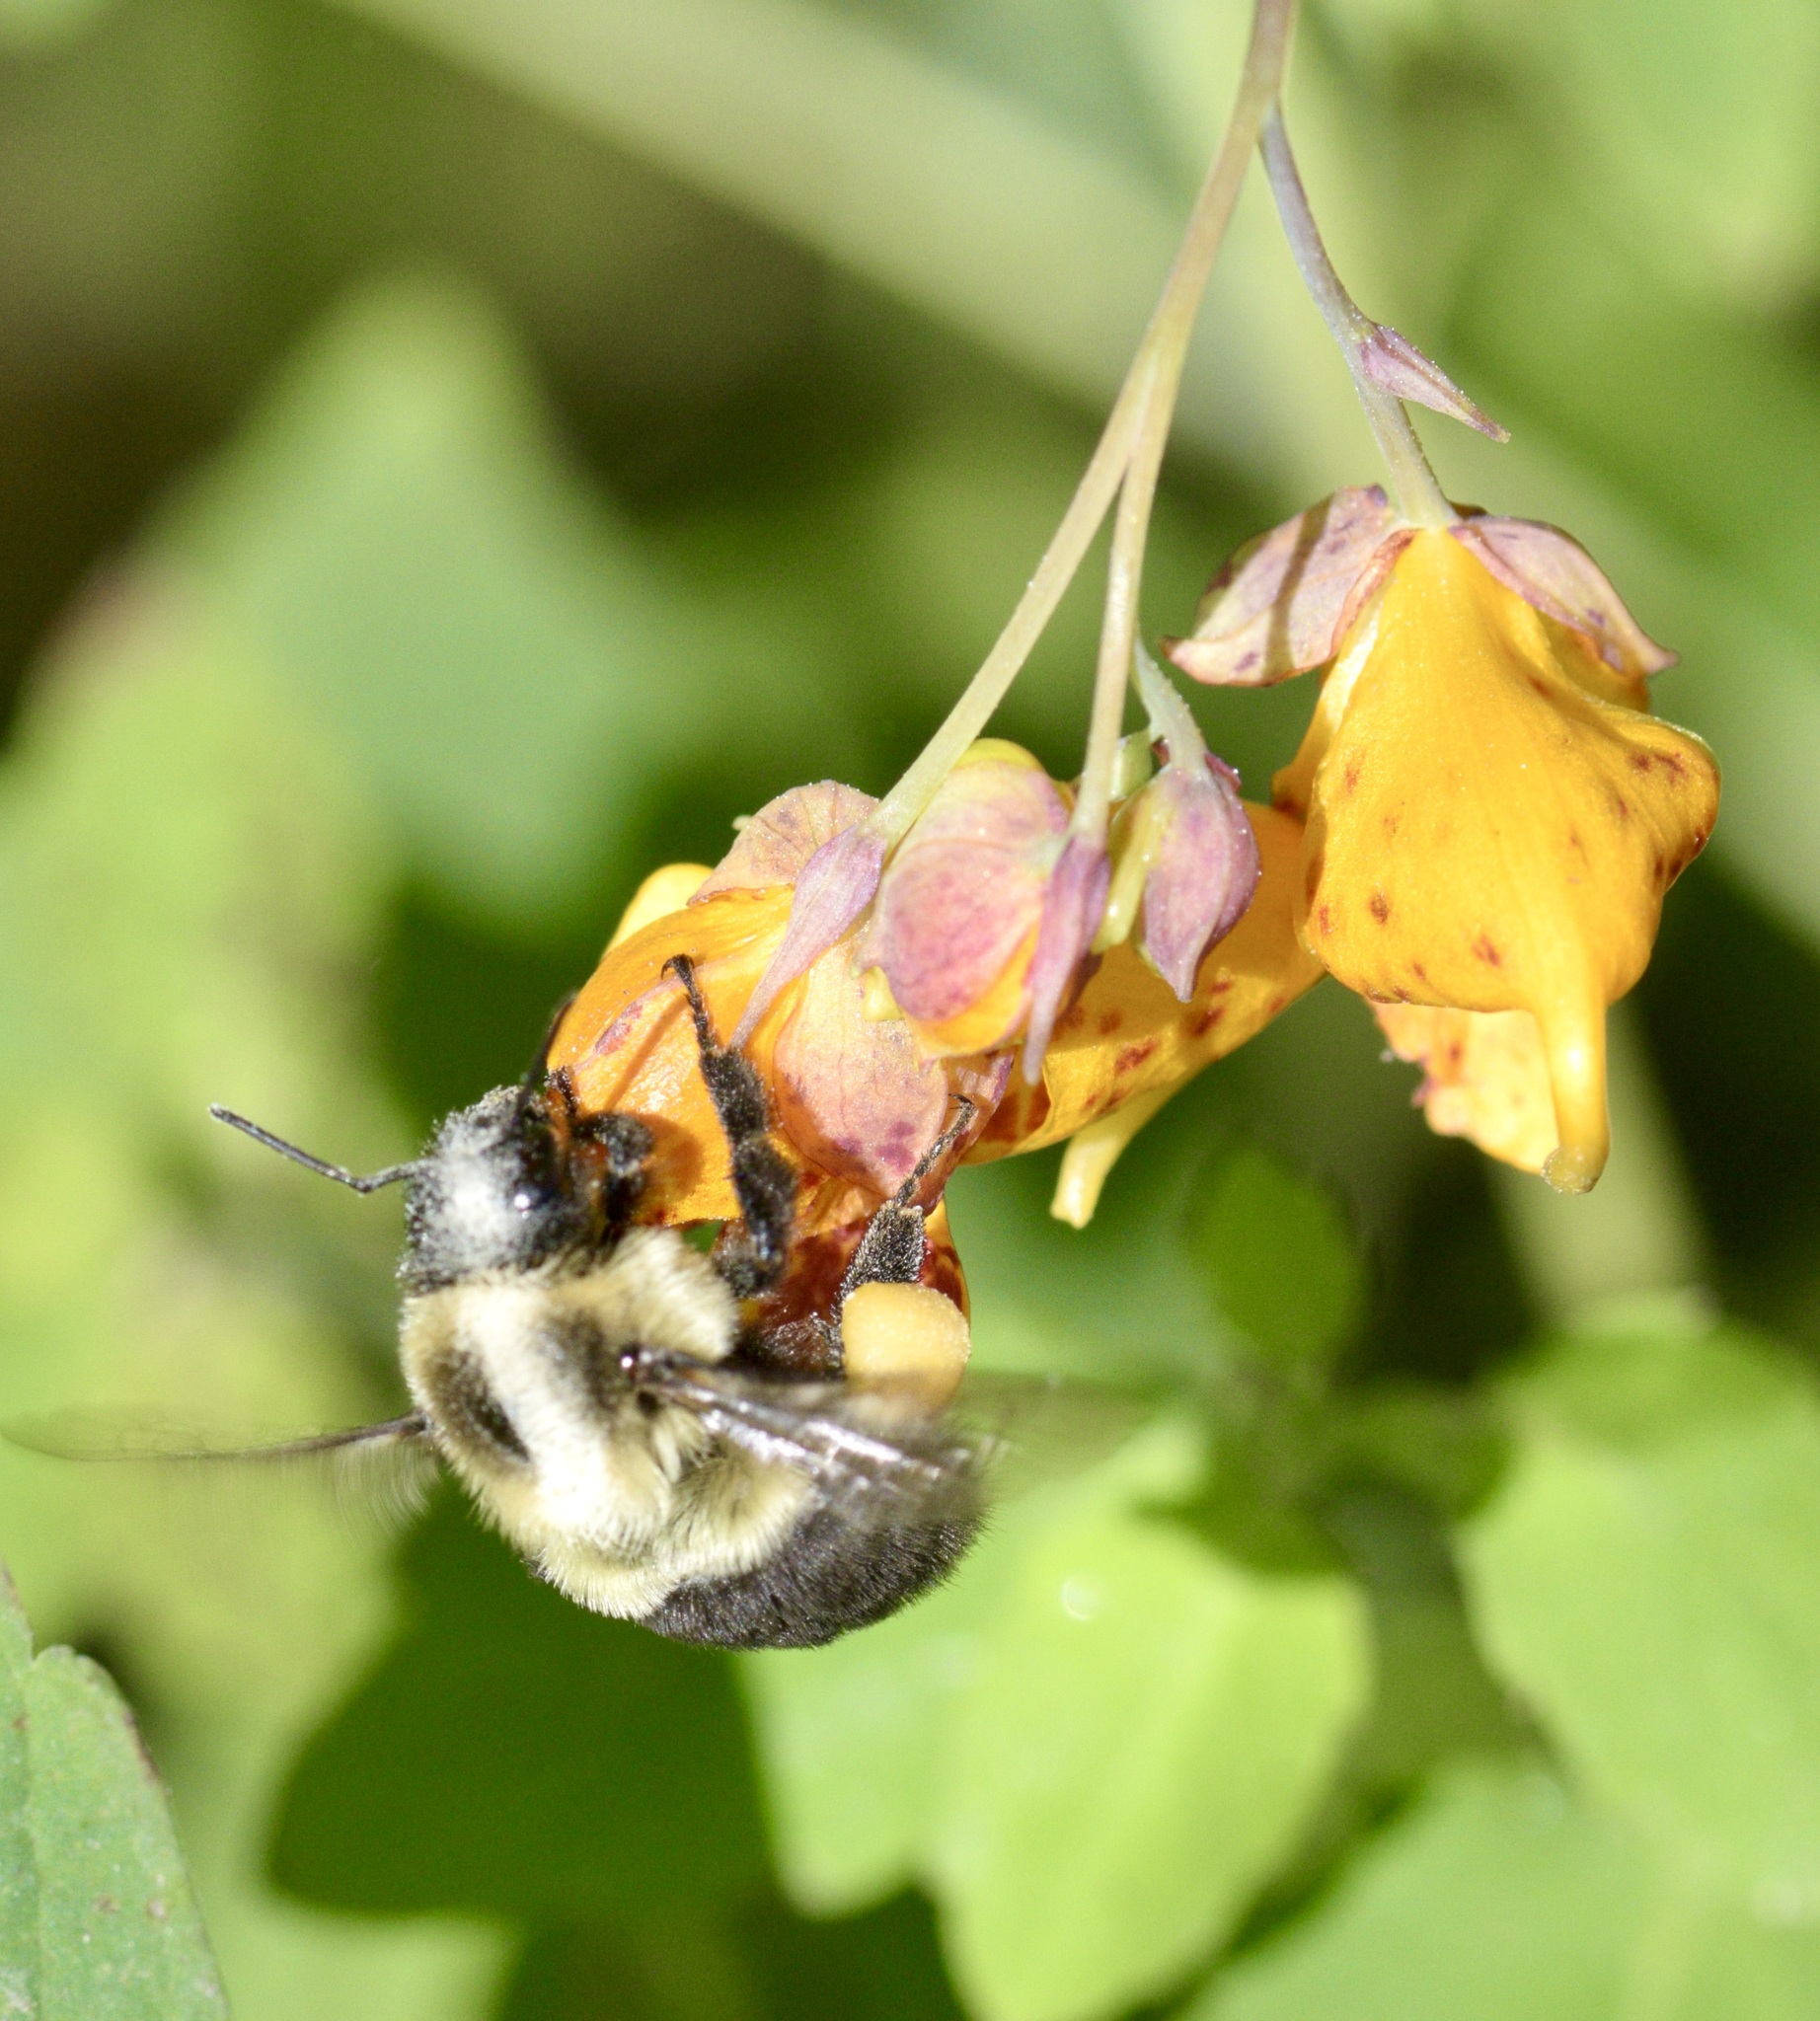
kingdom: Animalia
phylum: Arthropoda
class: Insecta
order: Hymenoptera
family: Apidae
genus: Bombus
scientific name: Bombus impatiens
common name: Common eastern bumble bee
